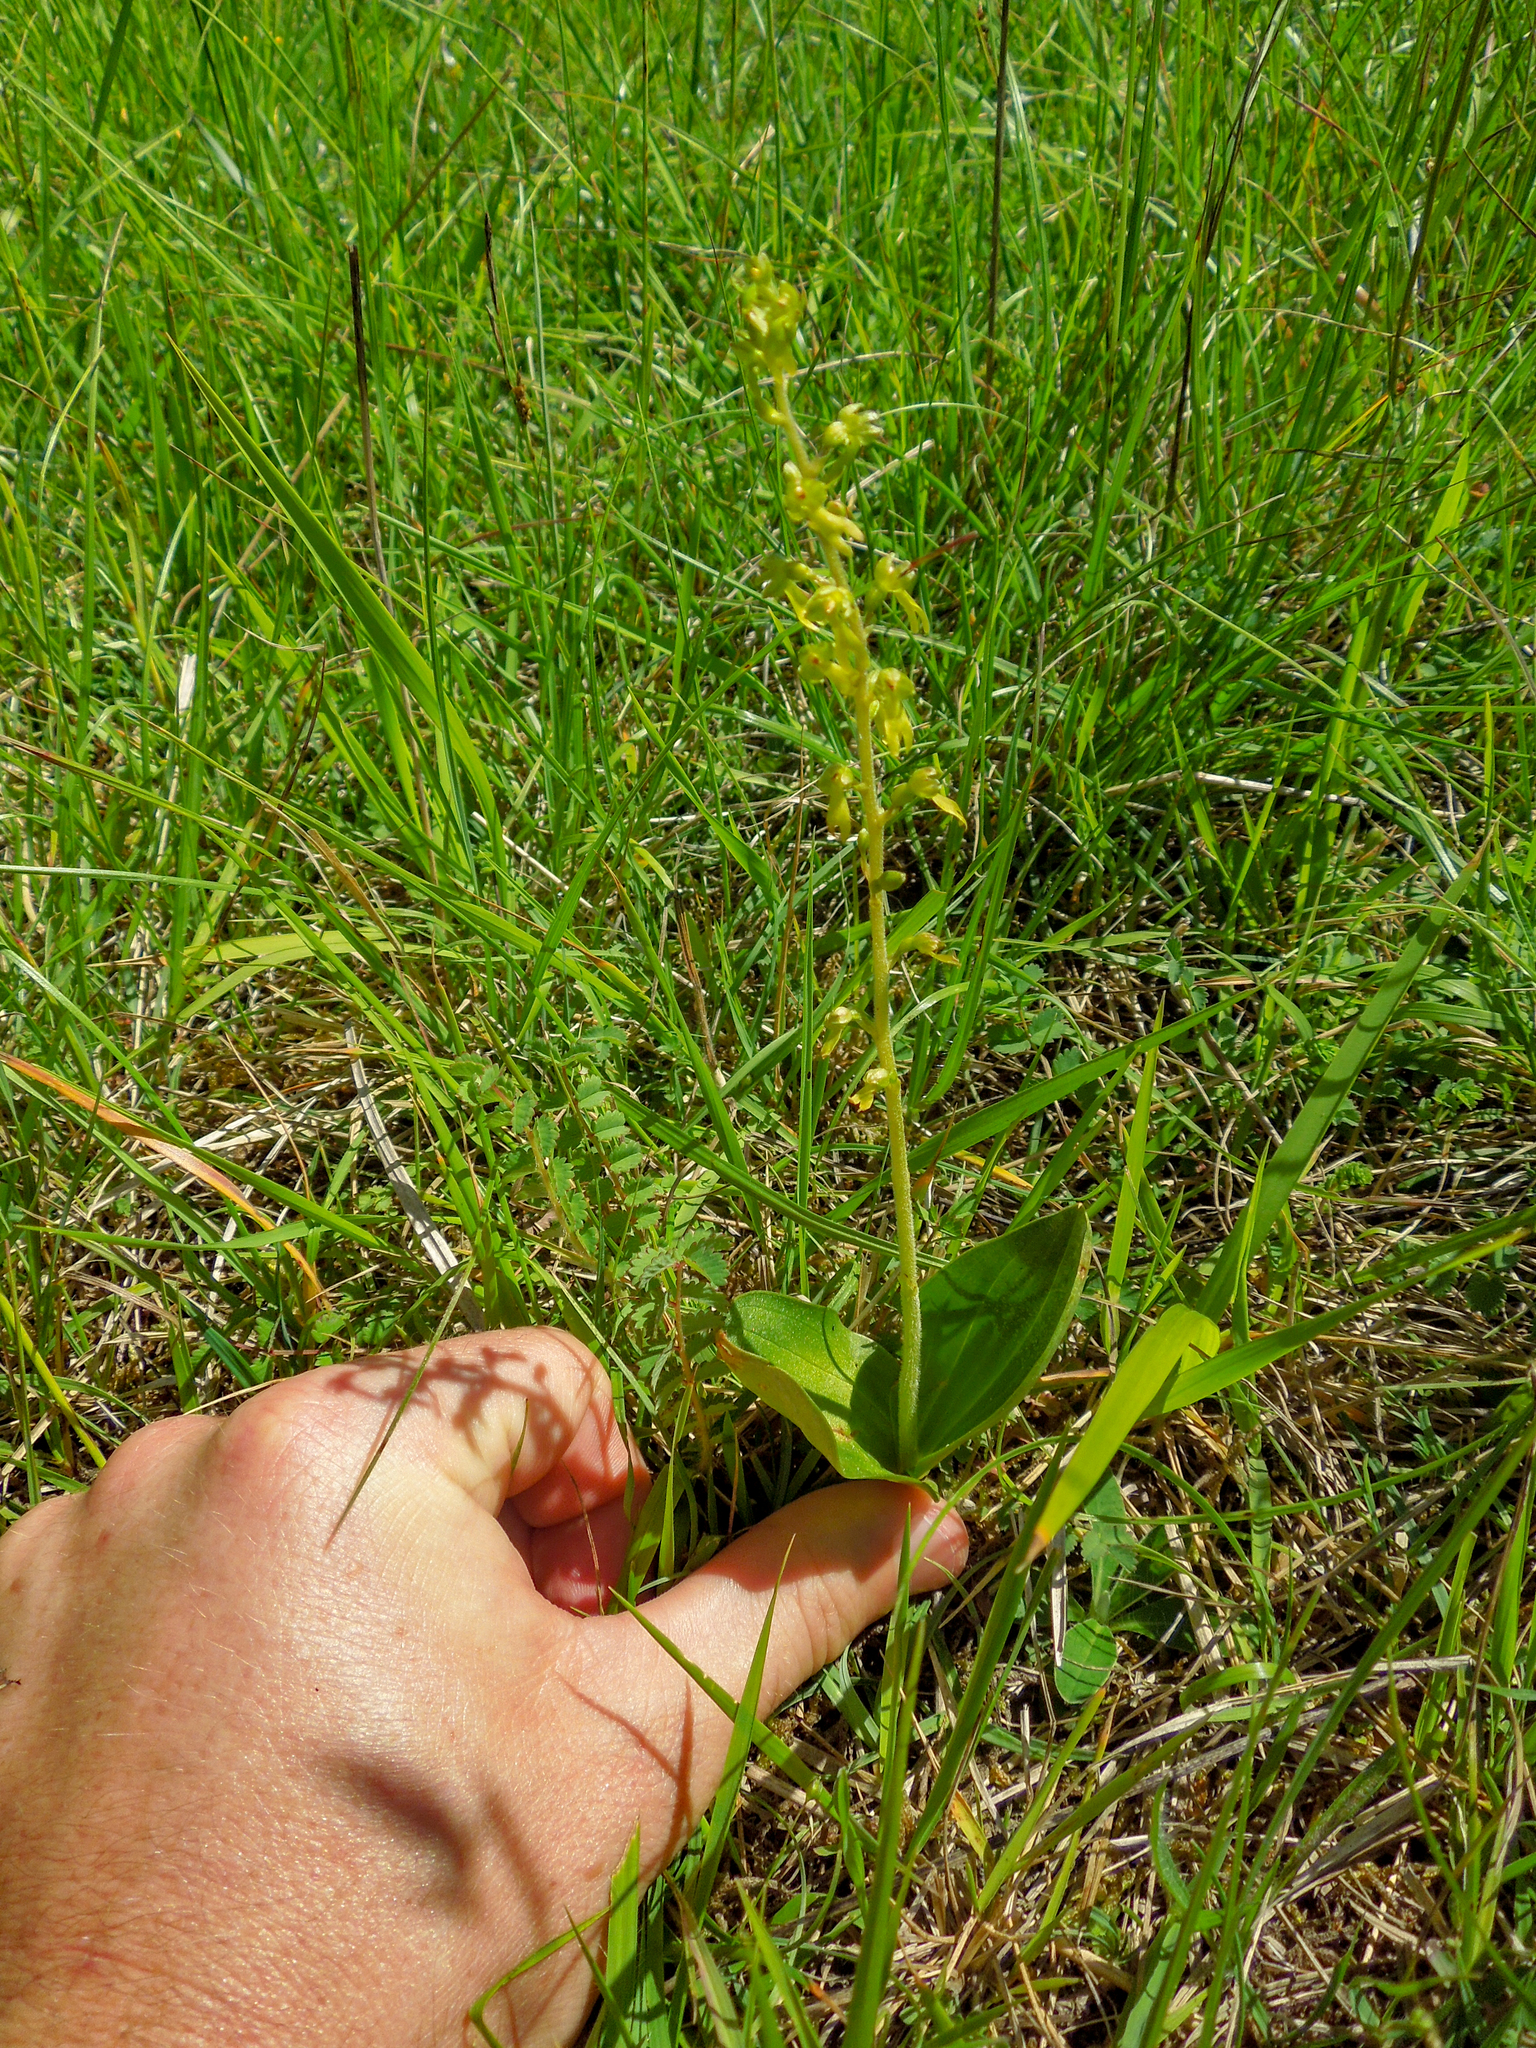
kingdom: Plantae
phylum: Tracheophyta
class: Liliopsida
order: Asparagales
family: Orchidaceae
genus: Neottia
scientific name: Neottia ovata
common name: Common twayblade
